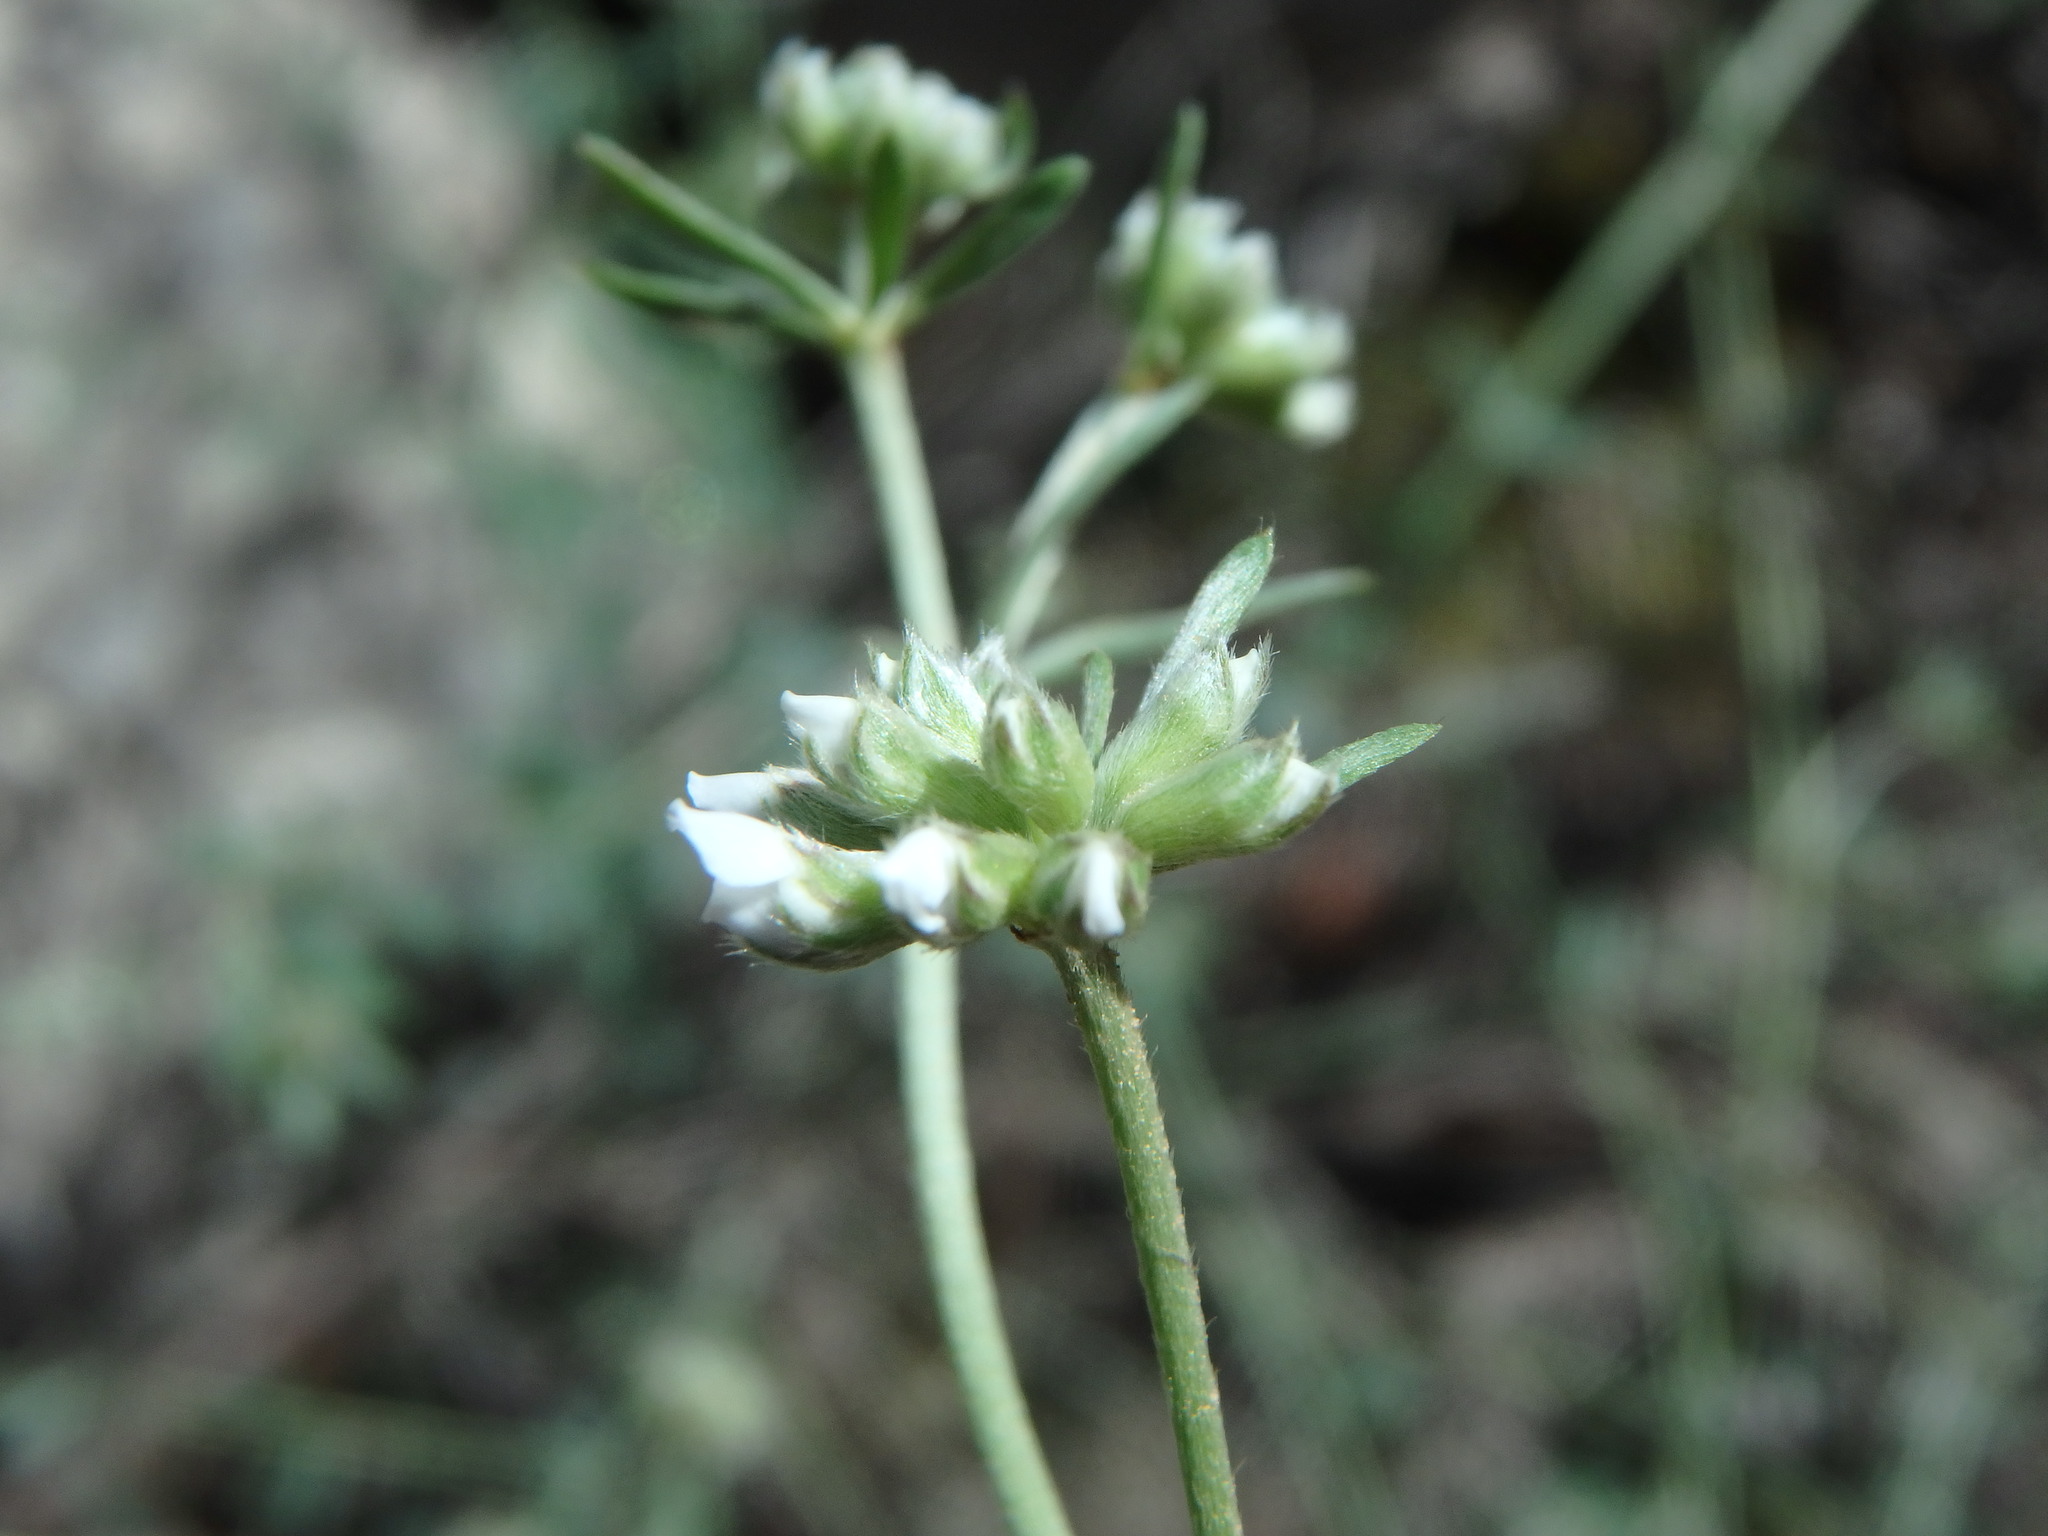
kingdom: Plantae
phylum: Tracheophyta
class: Magnoliopsida
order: Fabales
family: Fabaceae
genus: Lotus
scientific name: Lotus dorycnium
